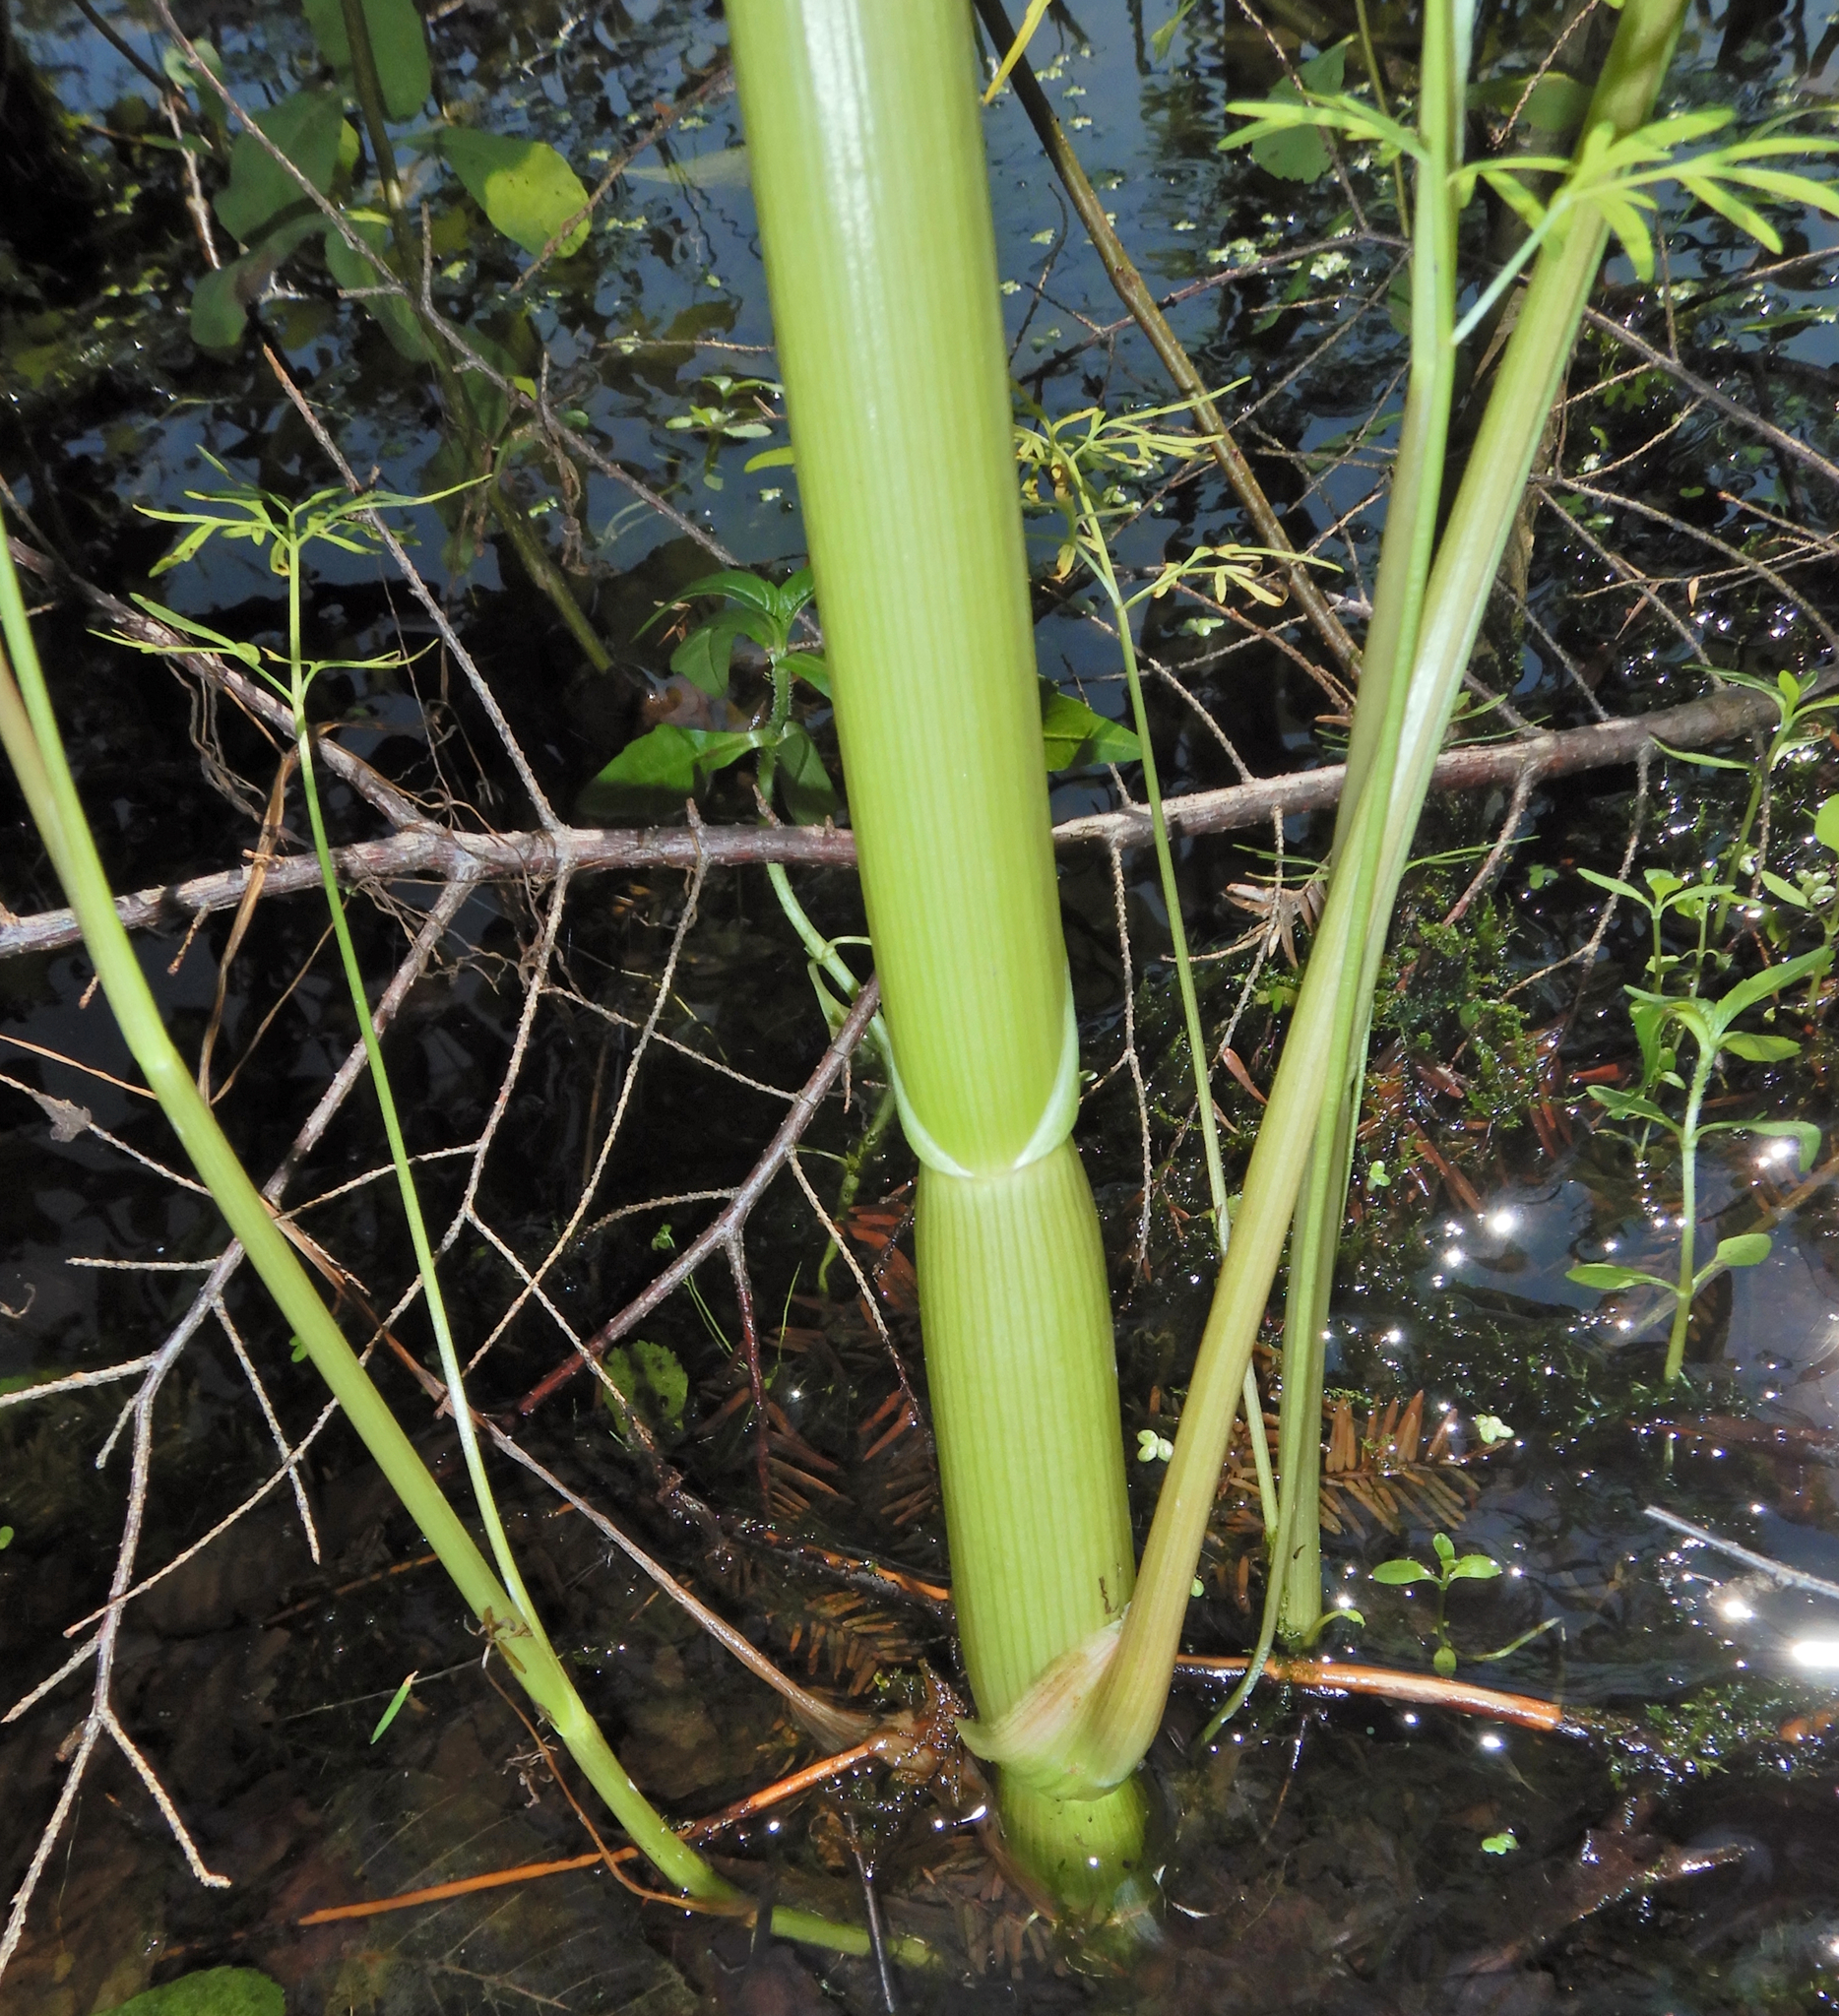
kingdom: Plantae
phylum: Tracheophyta
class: Magnoliopsida
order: Apiales
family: Apiaceae
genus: Cicuta
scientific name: Cicuta bulbifera
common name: Bulb-bearing water-hemlock
